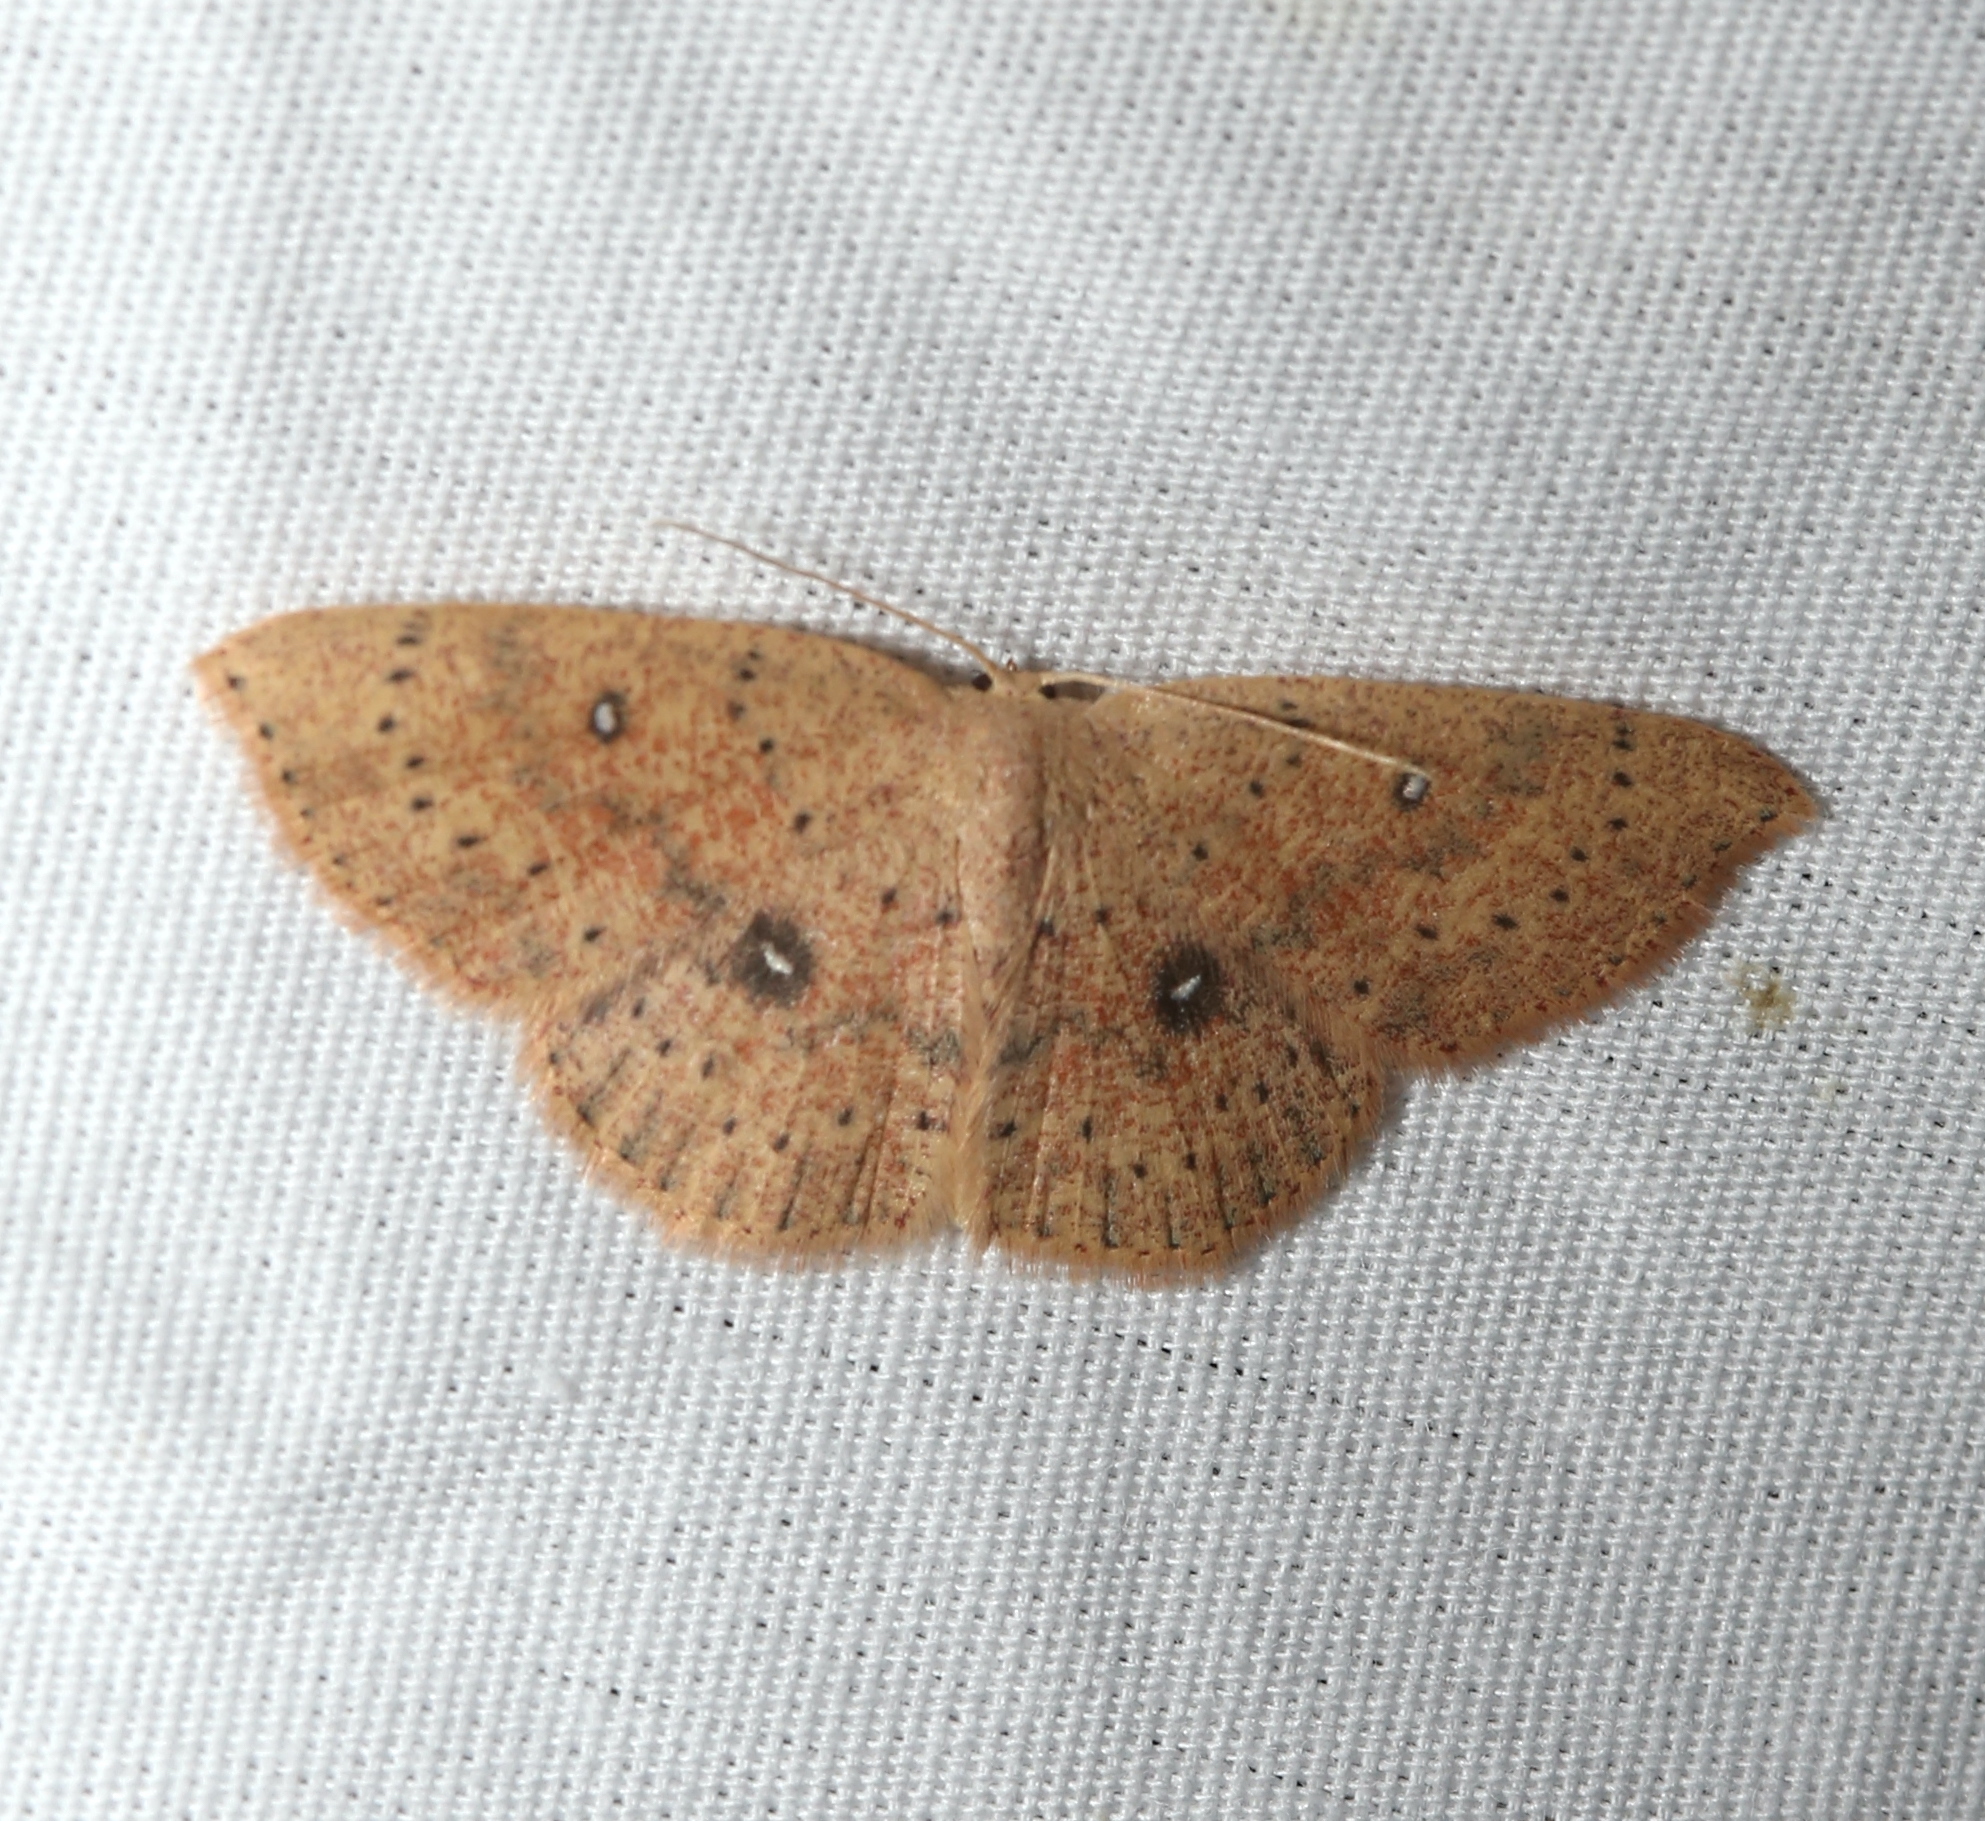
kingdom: Animalia
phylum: Arthropoda
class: Insecta
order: Lepidoptera
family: Geometridae
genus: Cyclophora
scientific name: Cyclophora packardi
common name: Packard's wave
